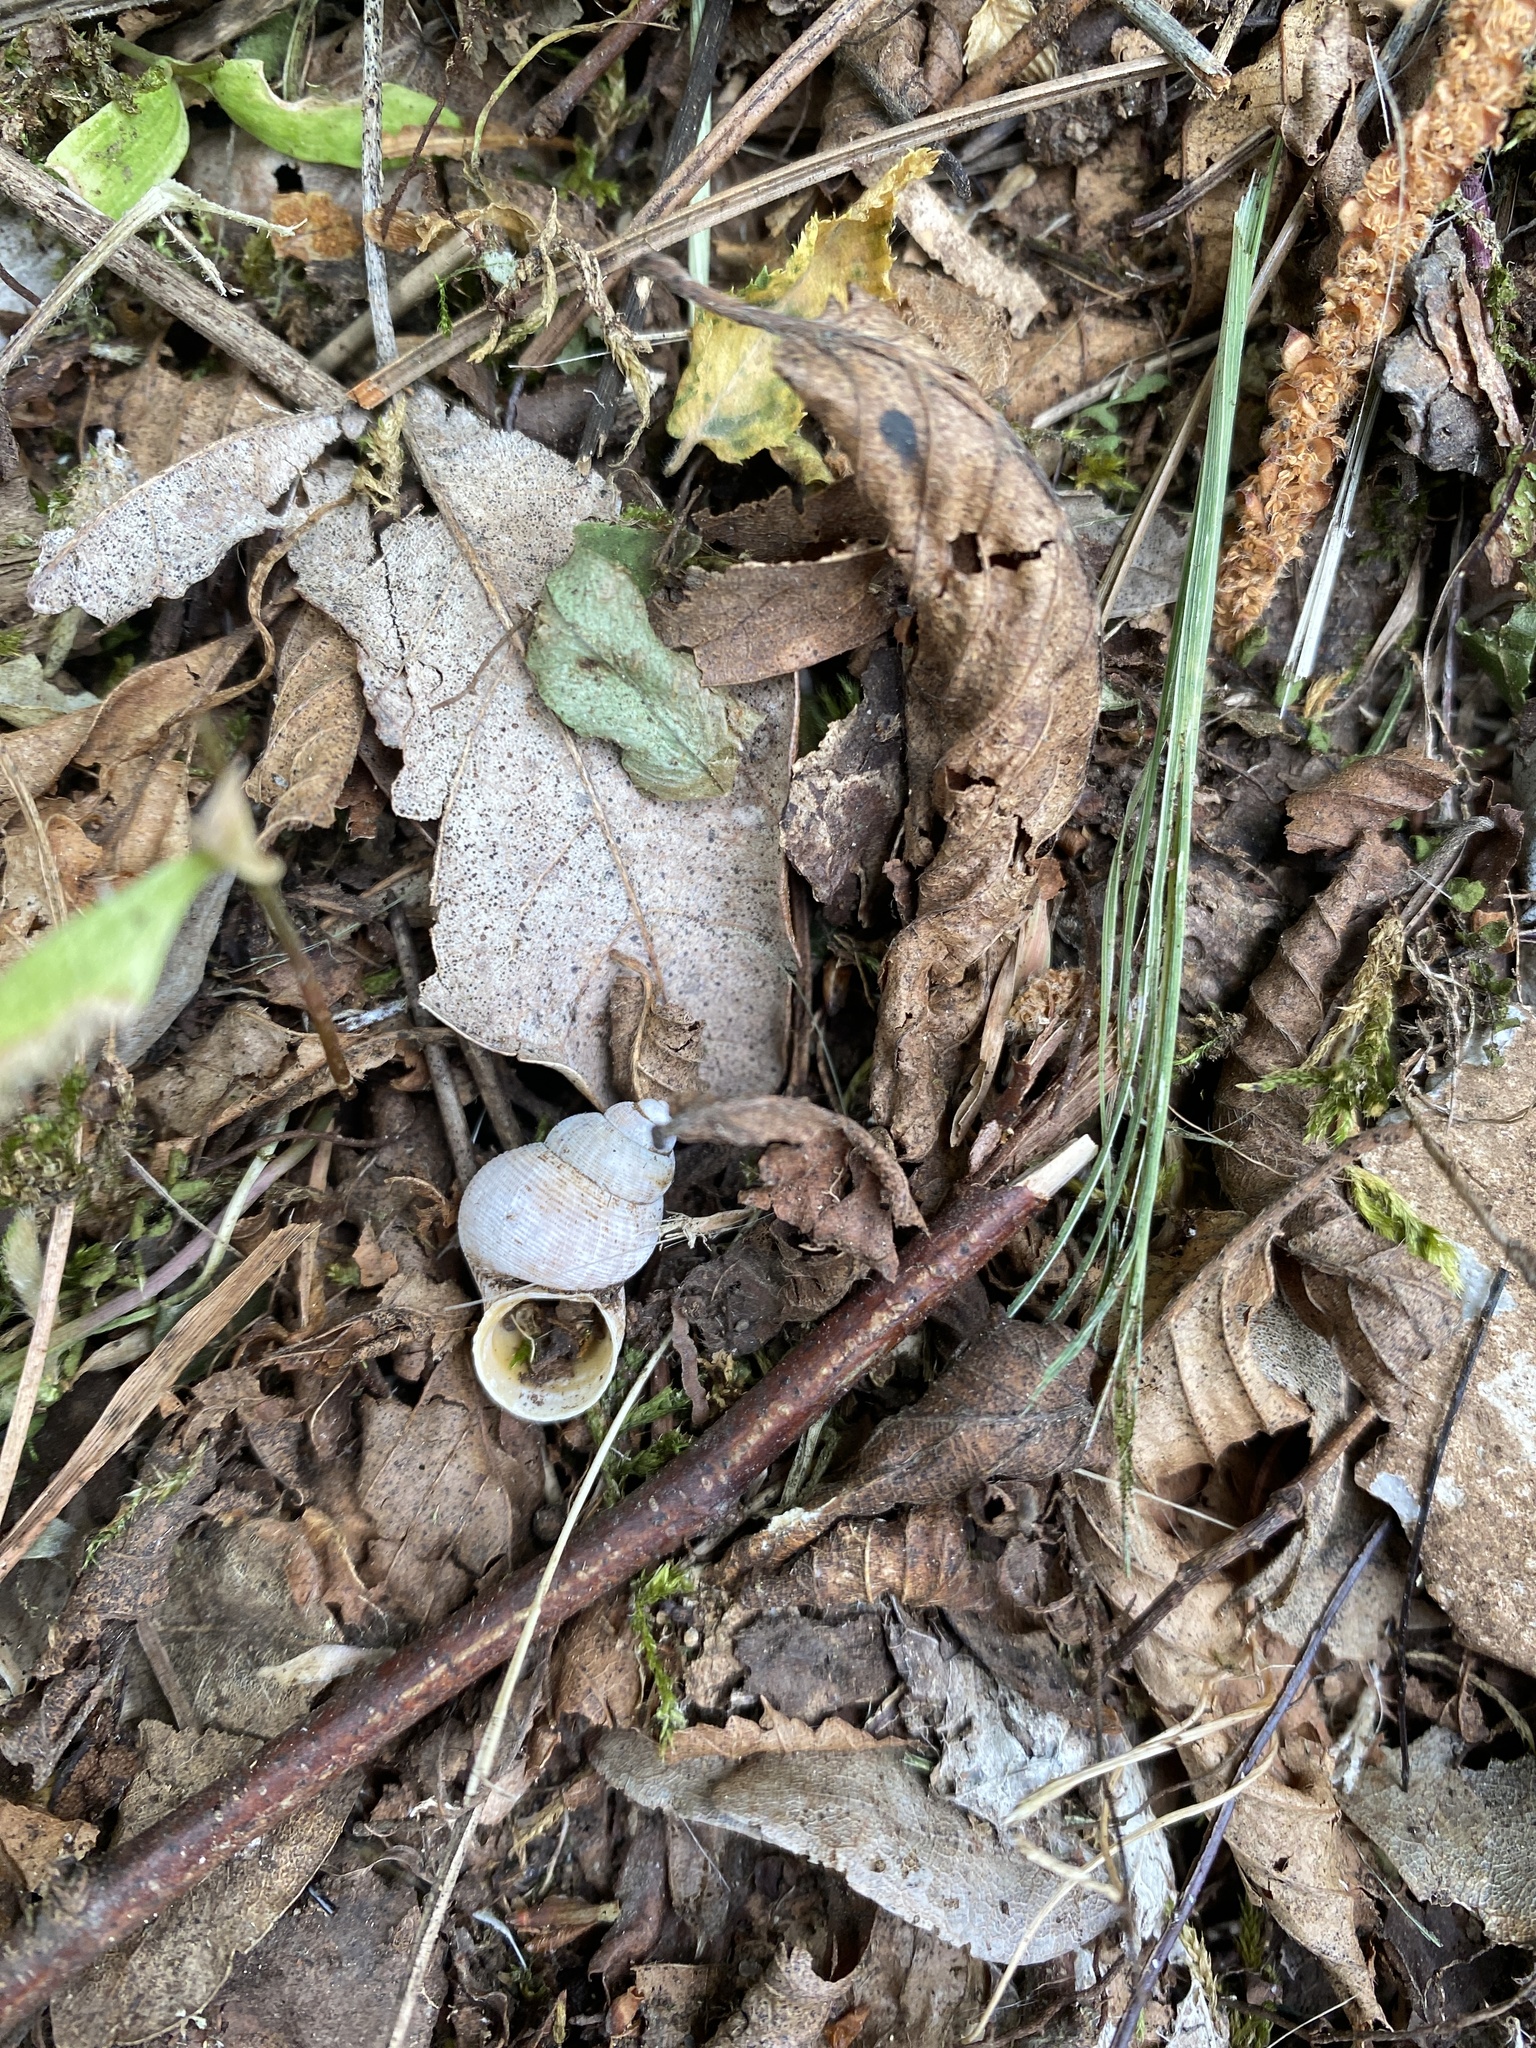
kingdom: Animalia
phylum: Mollusca
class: Gastropoda
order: Littorinimorpha
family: Pomatiidae
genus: Pomatias
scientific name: Pomatias elegans
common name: Red-mouthed snail
